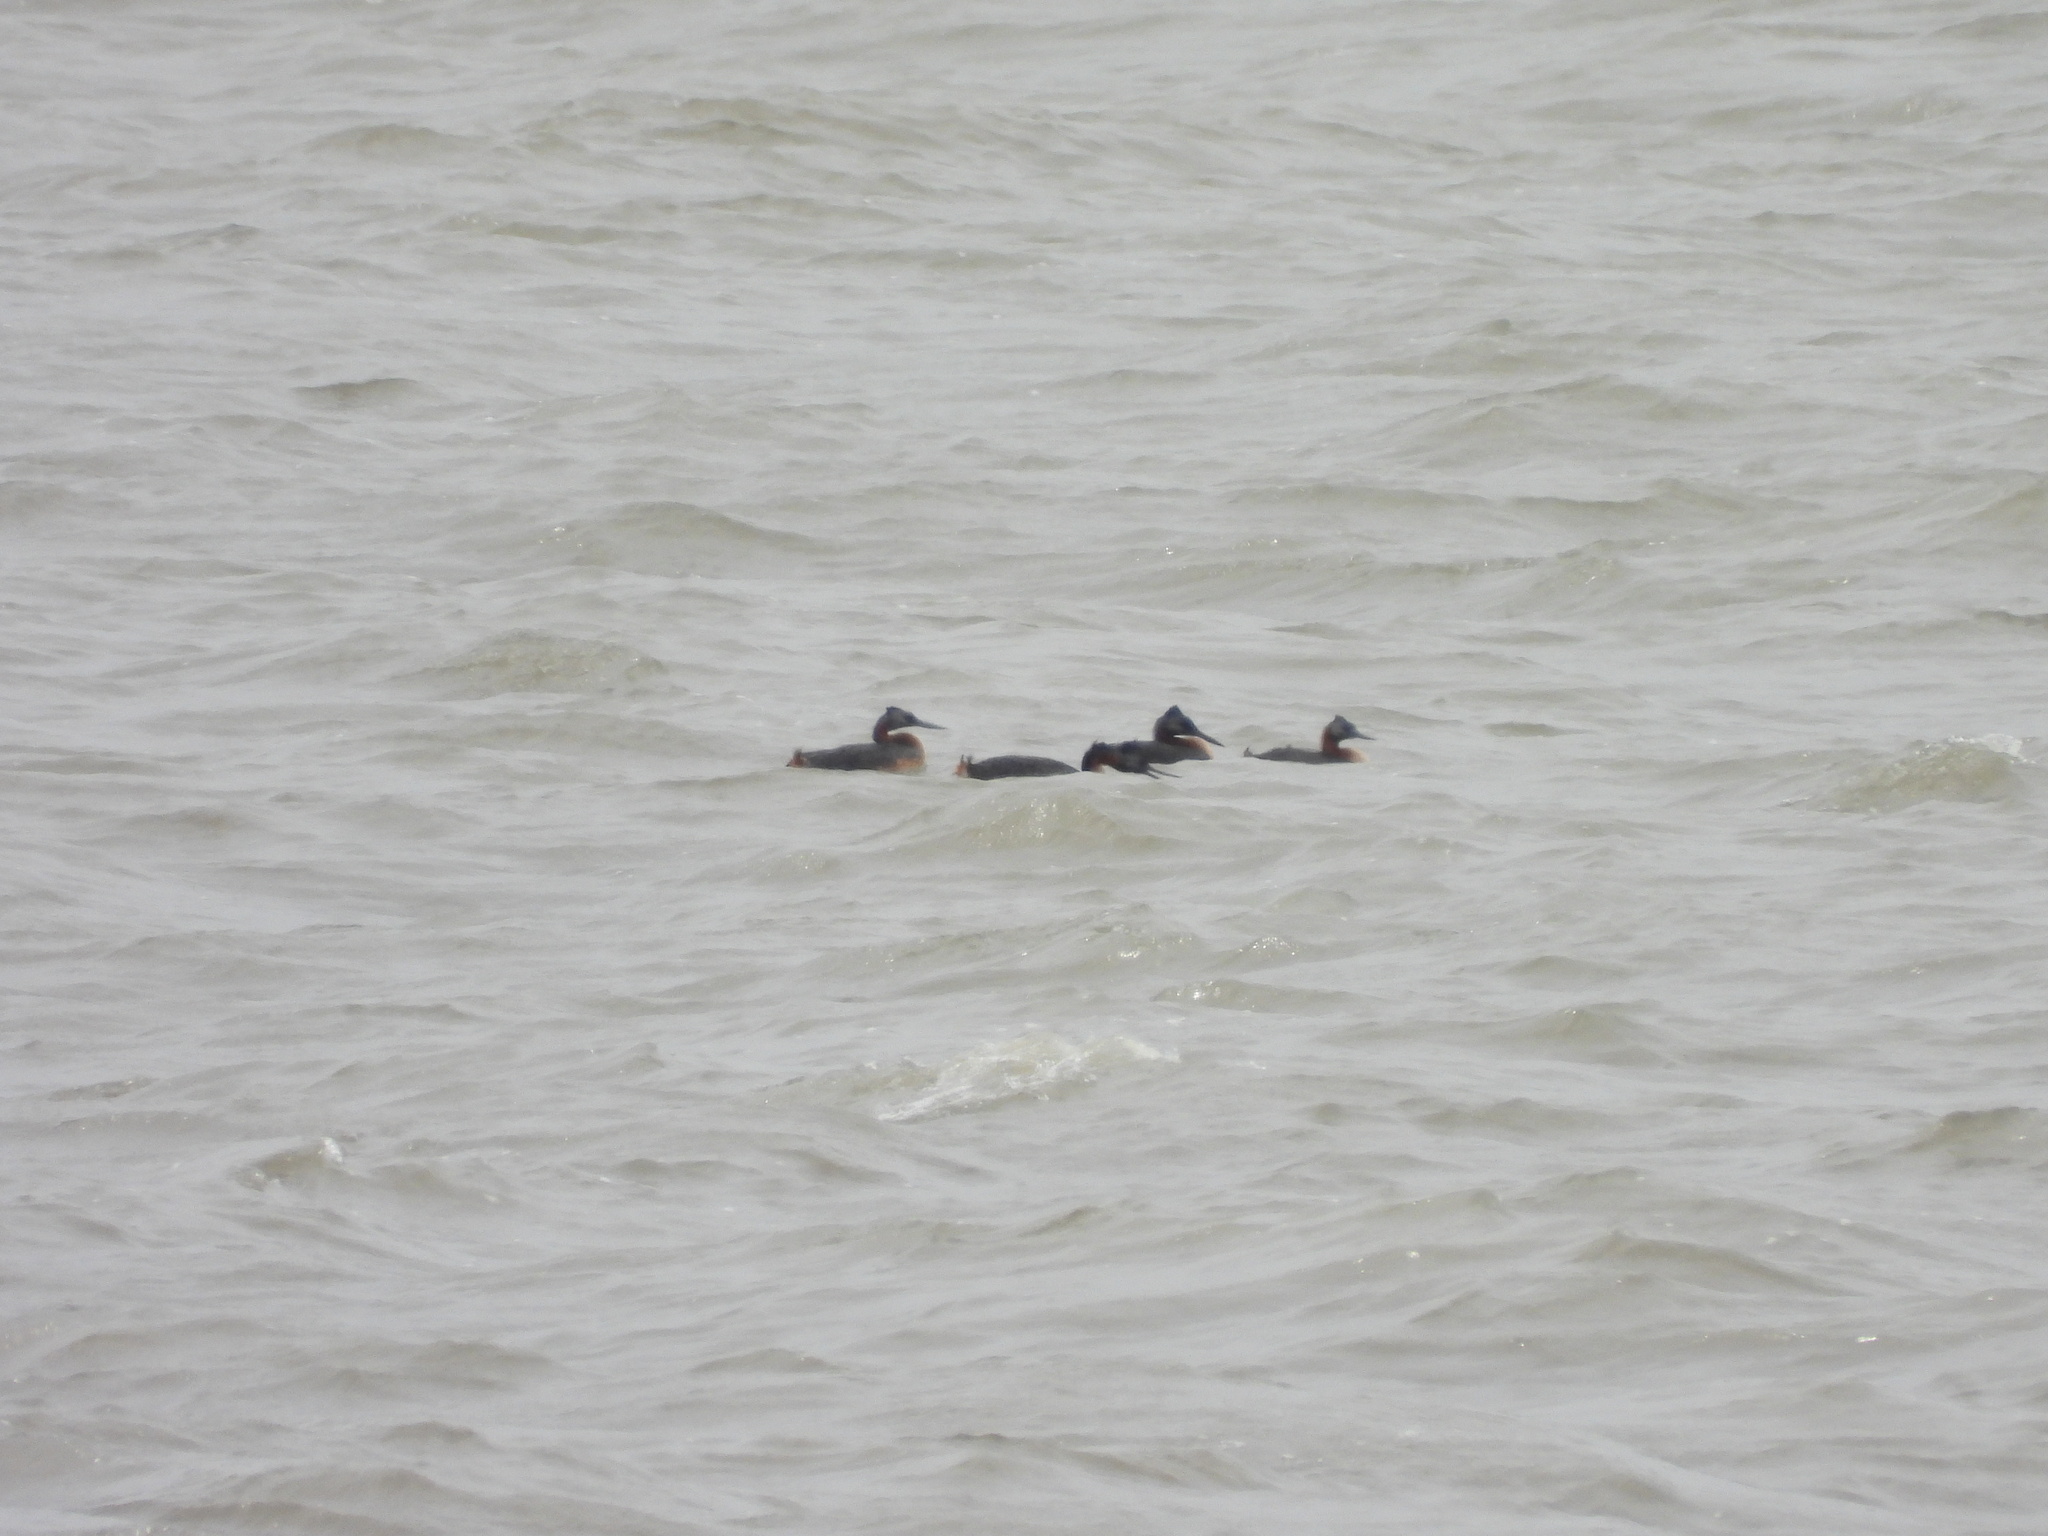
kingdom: Animalia
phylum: Chordata
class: Aves
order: Podicipediformes
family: Podicipedidae
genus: Podiceps
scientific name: Podiceps major
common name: Great grebe
